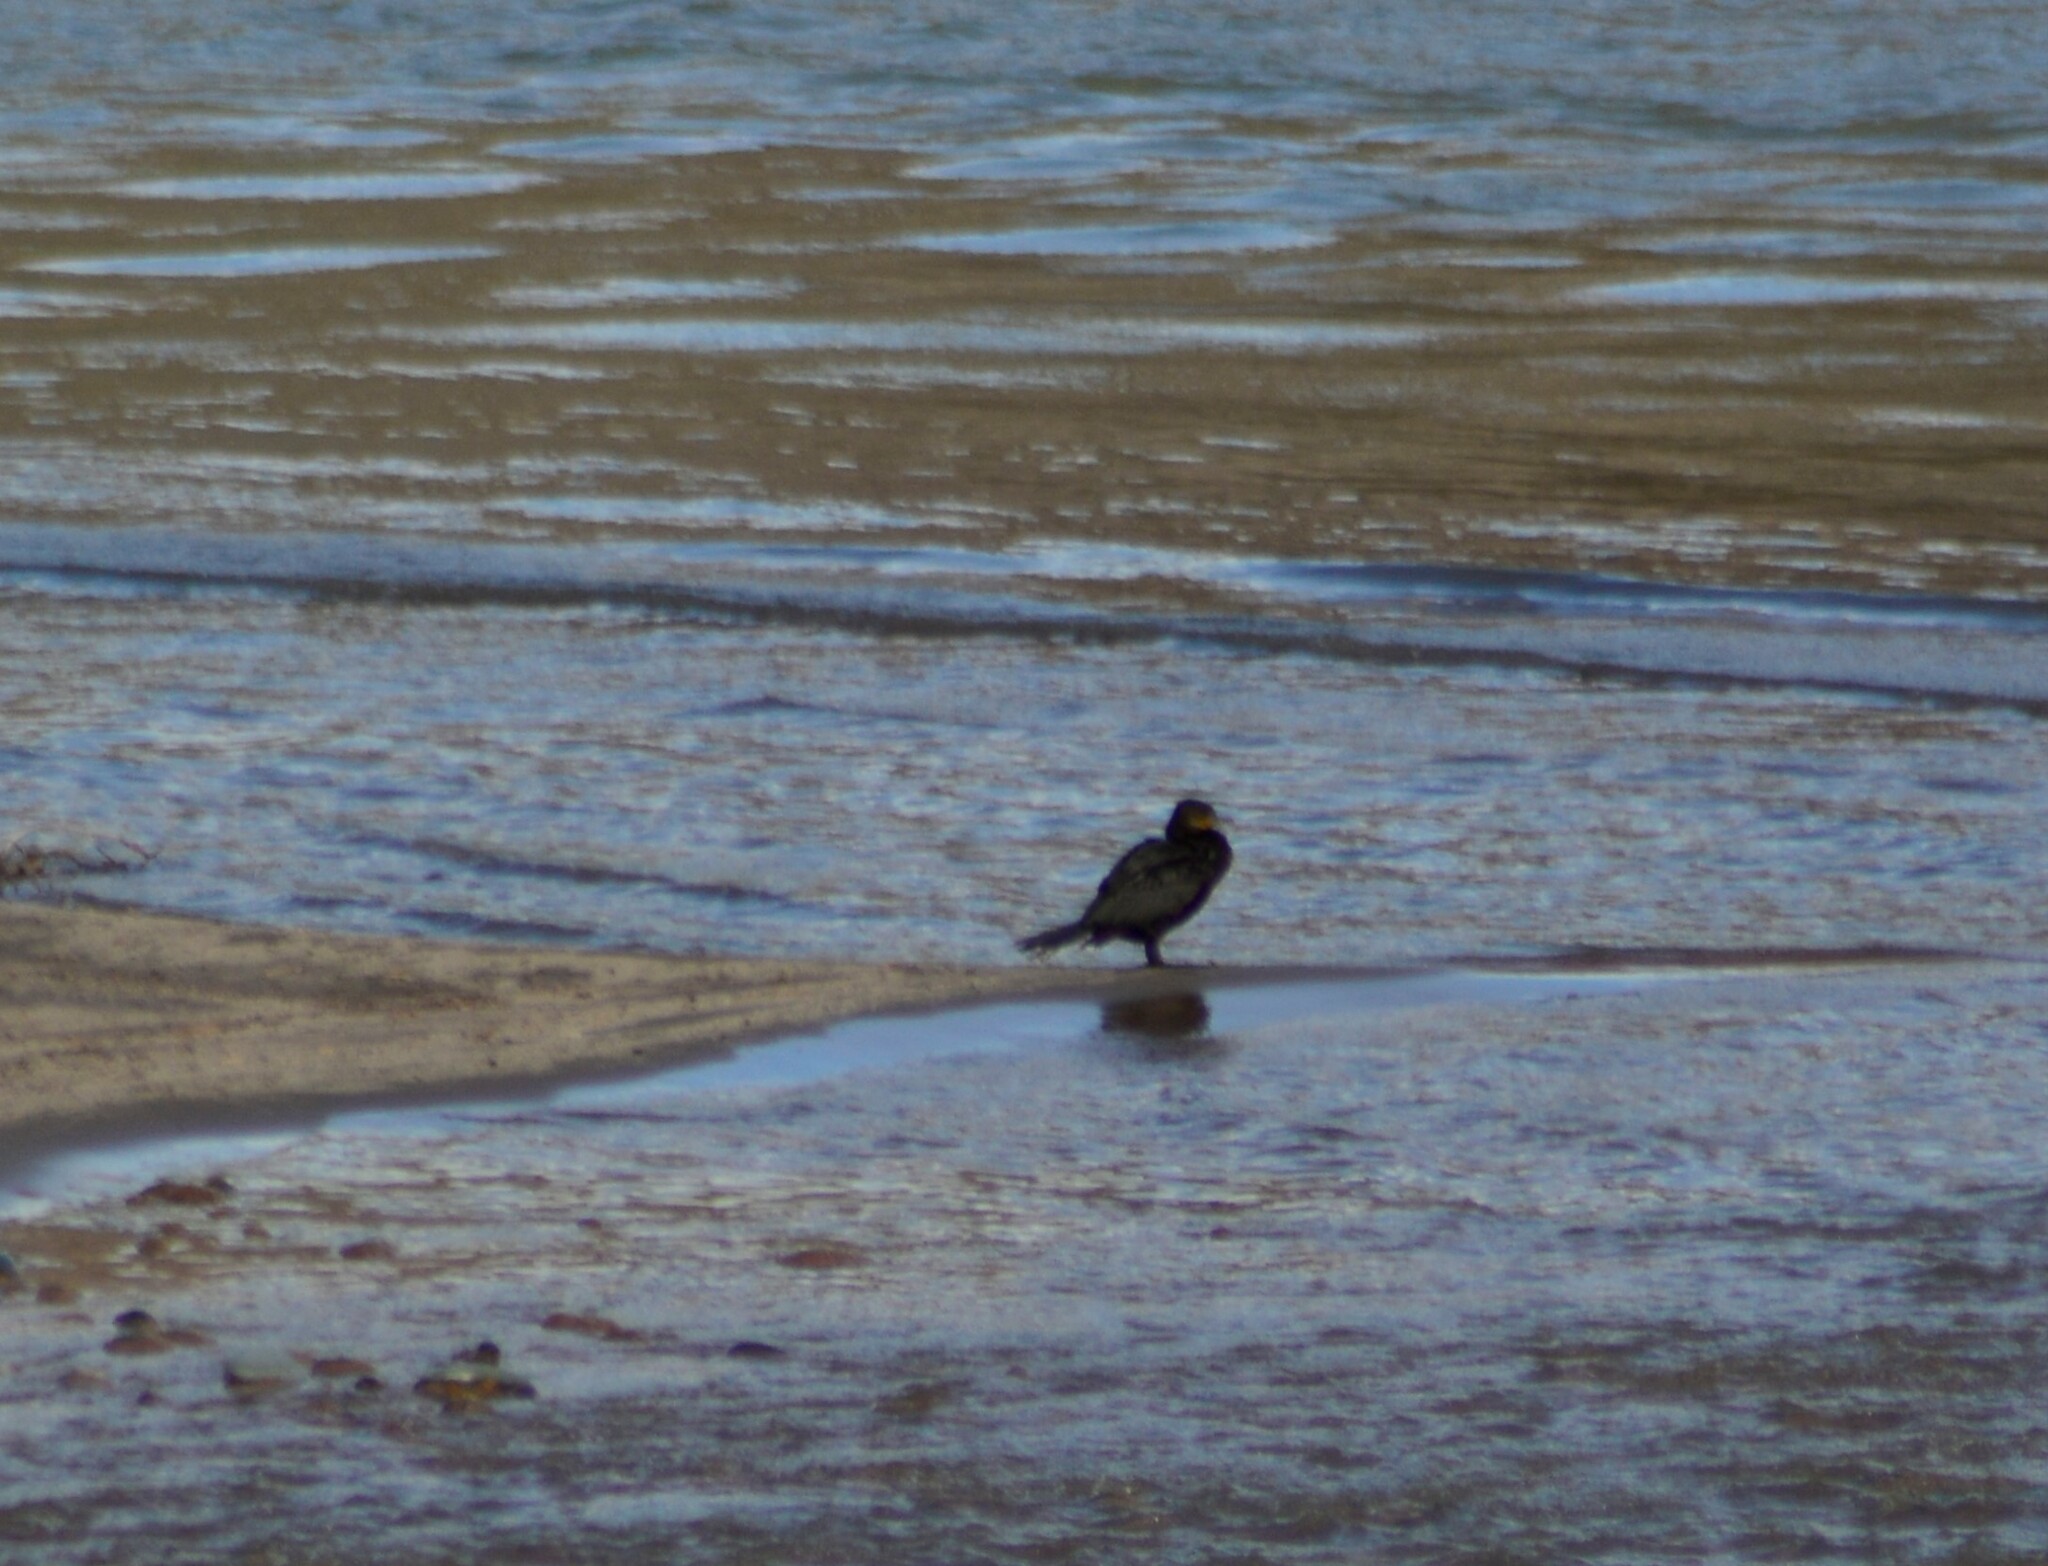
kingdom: Animalia
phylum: Chordata
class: Aves
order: Suliformes
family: Phalacrocoracidae
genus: Phalacrocorax
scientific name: Phalacrocorax brasilianus
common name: Neotropic cormorant
